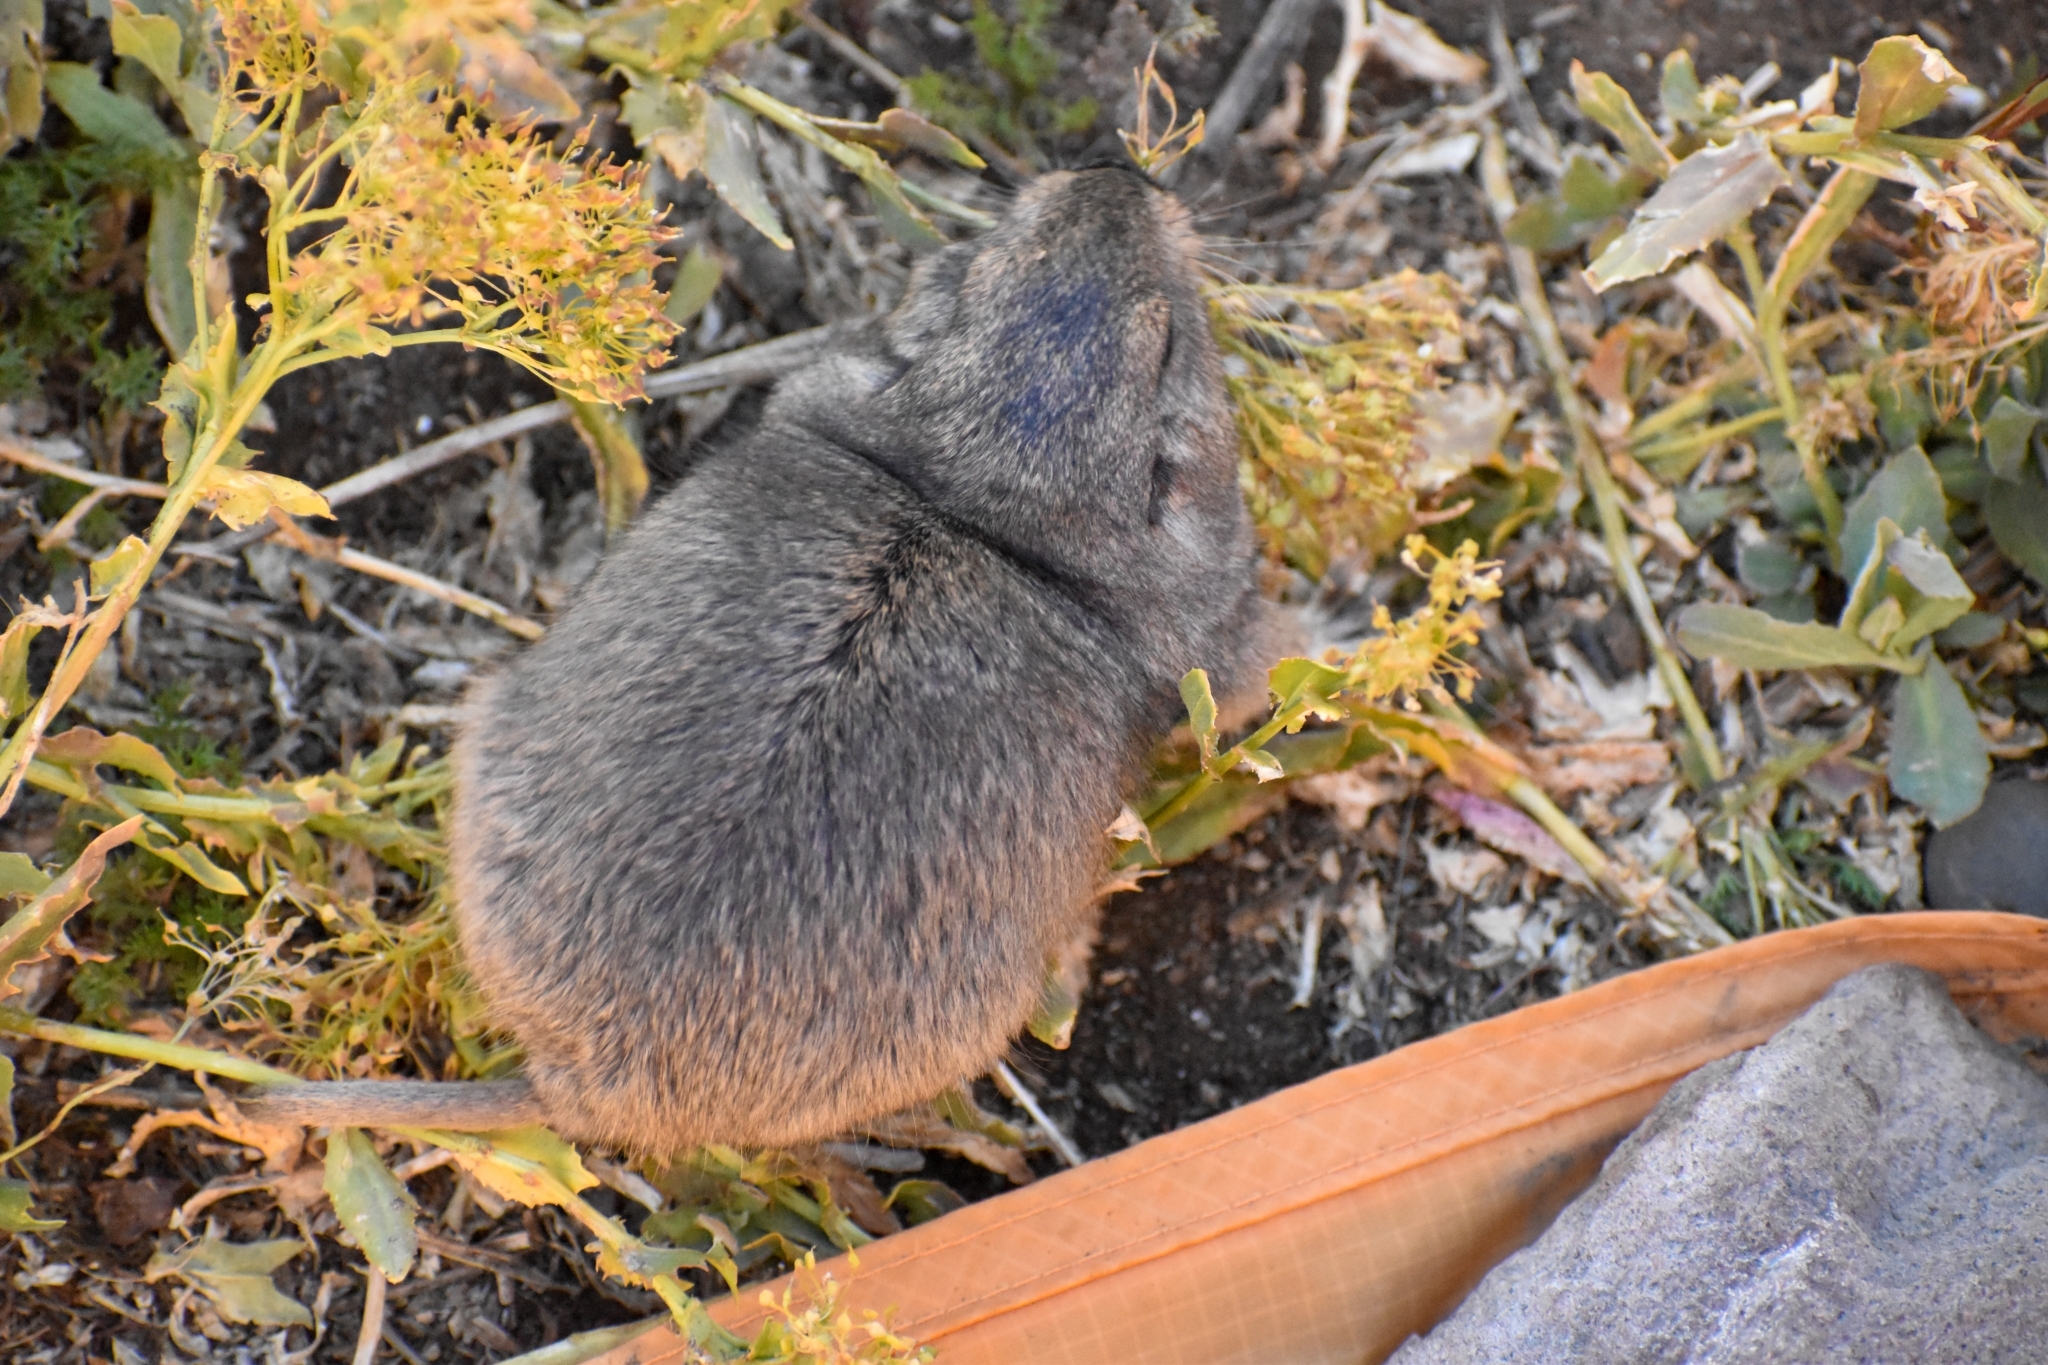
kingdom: Animalia
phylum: Chordata
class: Mammalia
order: Rodentia
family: Ctenomyidae
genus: Ctenomys
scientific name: Ctenomys sericeus
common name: Silky tuco-tuco
